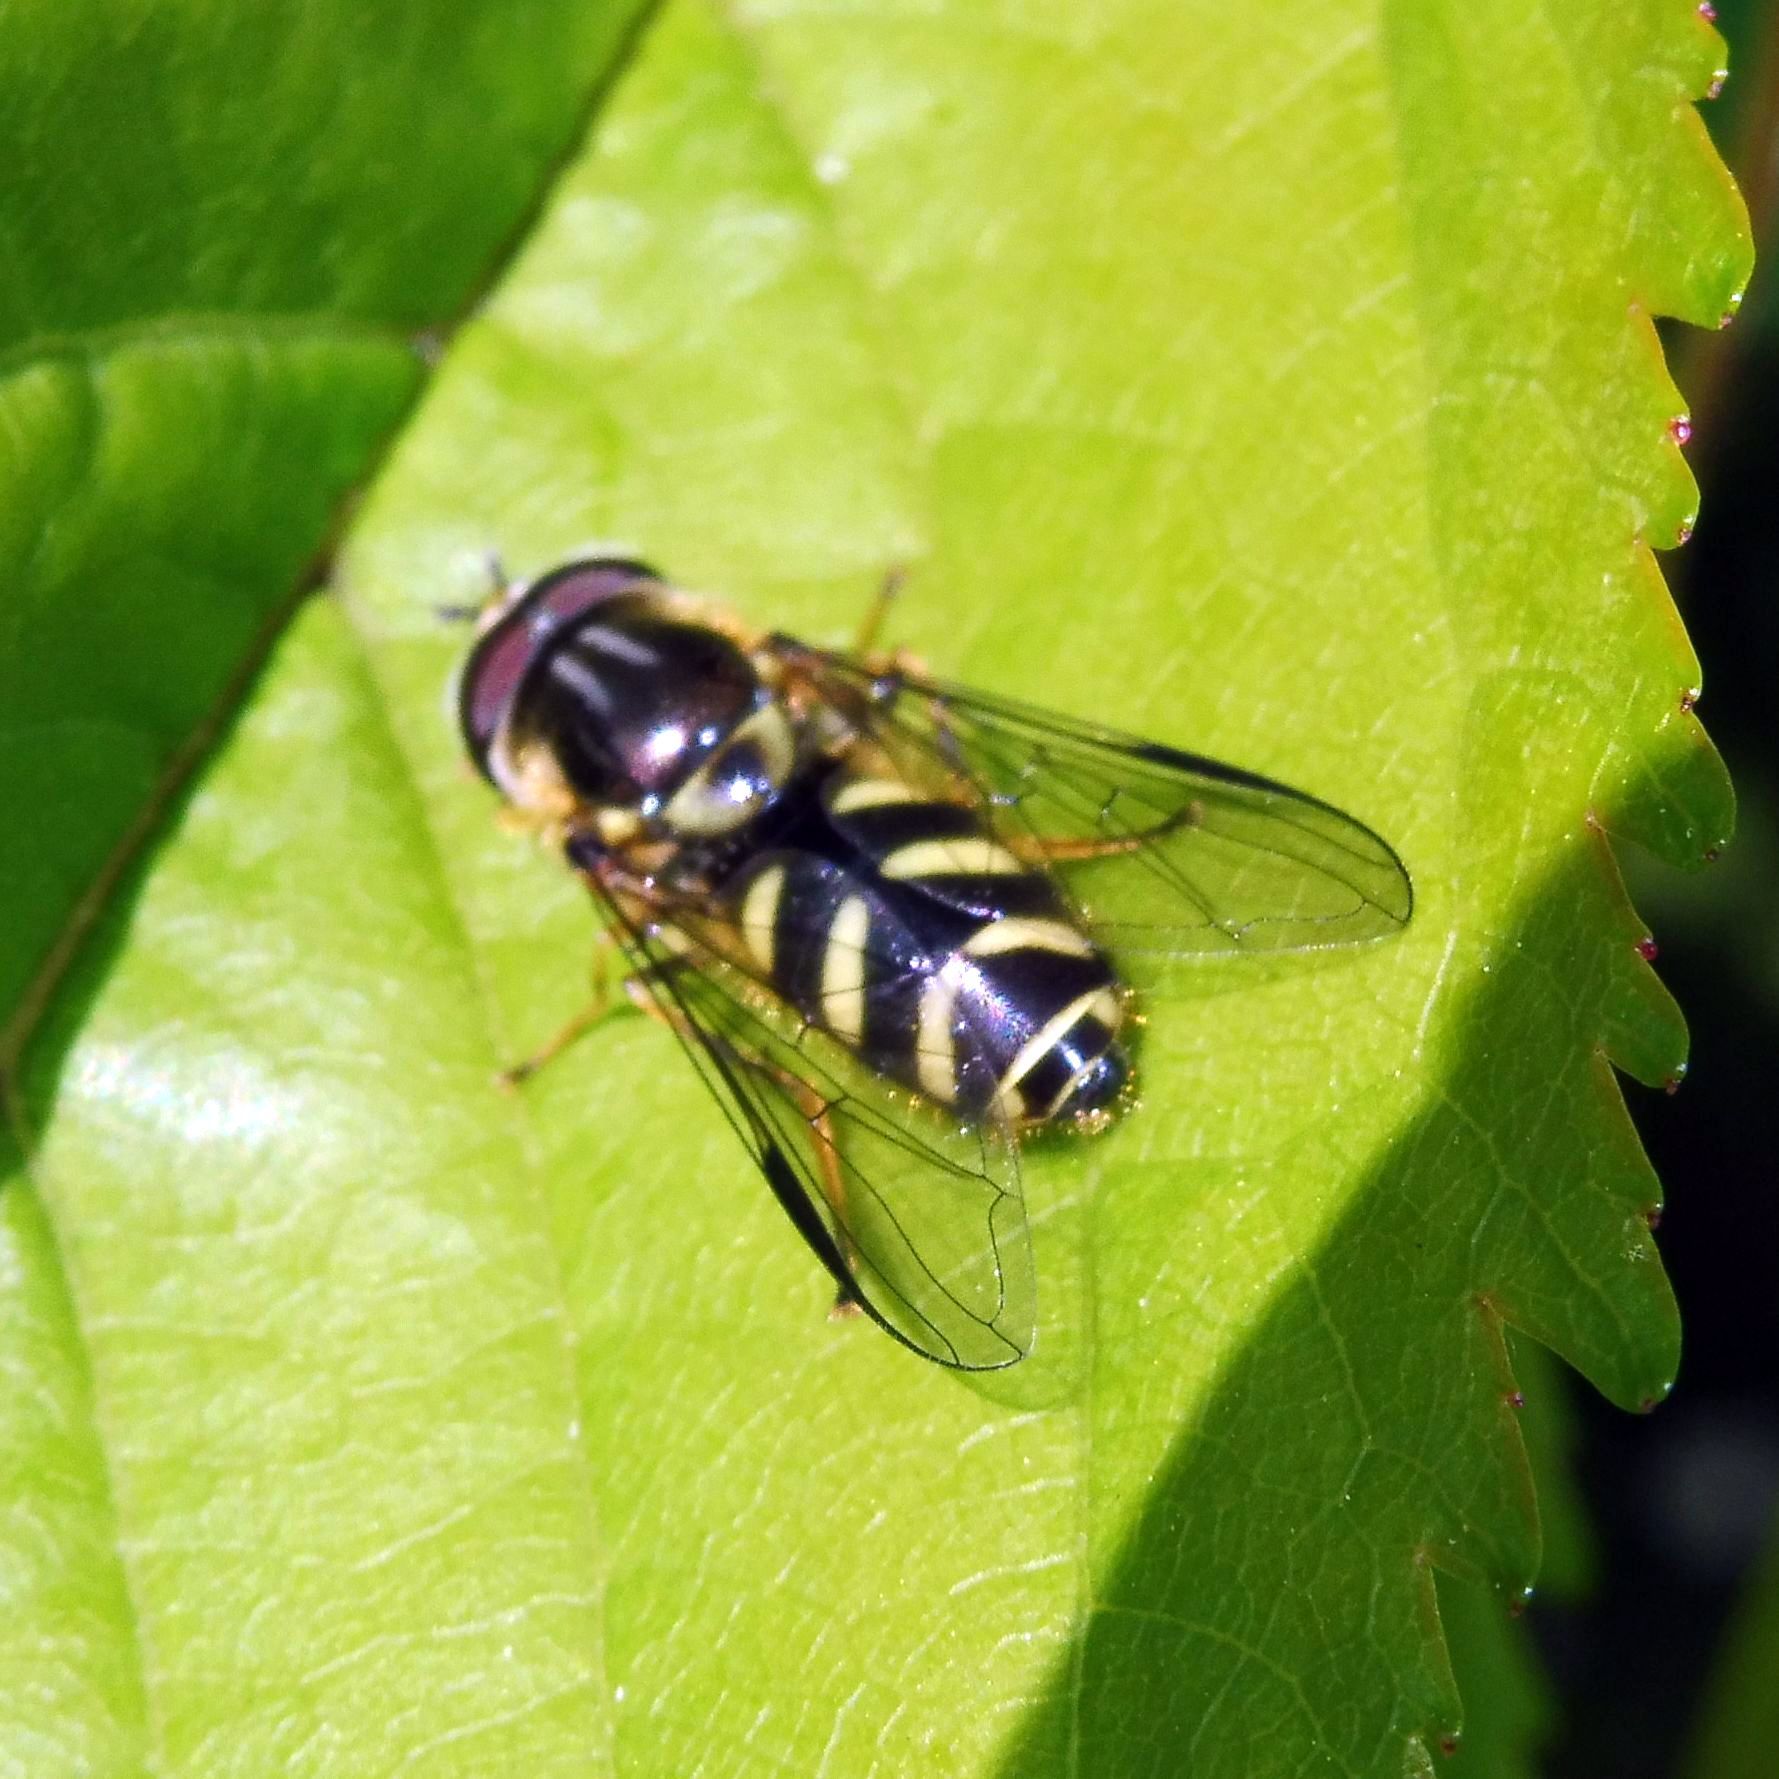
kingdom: Animalia
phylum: Arthropoda
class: Insecta
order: Diptera
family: Syrphidae
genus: Dasysyrphus
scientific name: Dasysyrphus albostriatus
